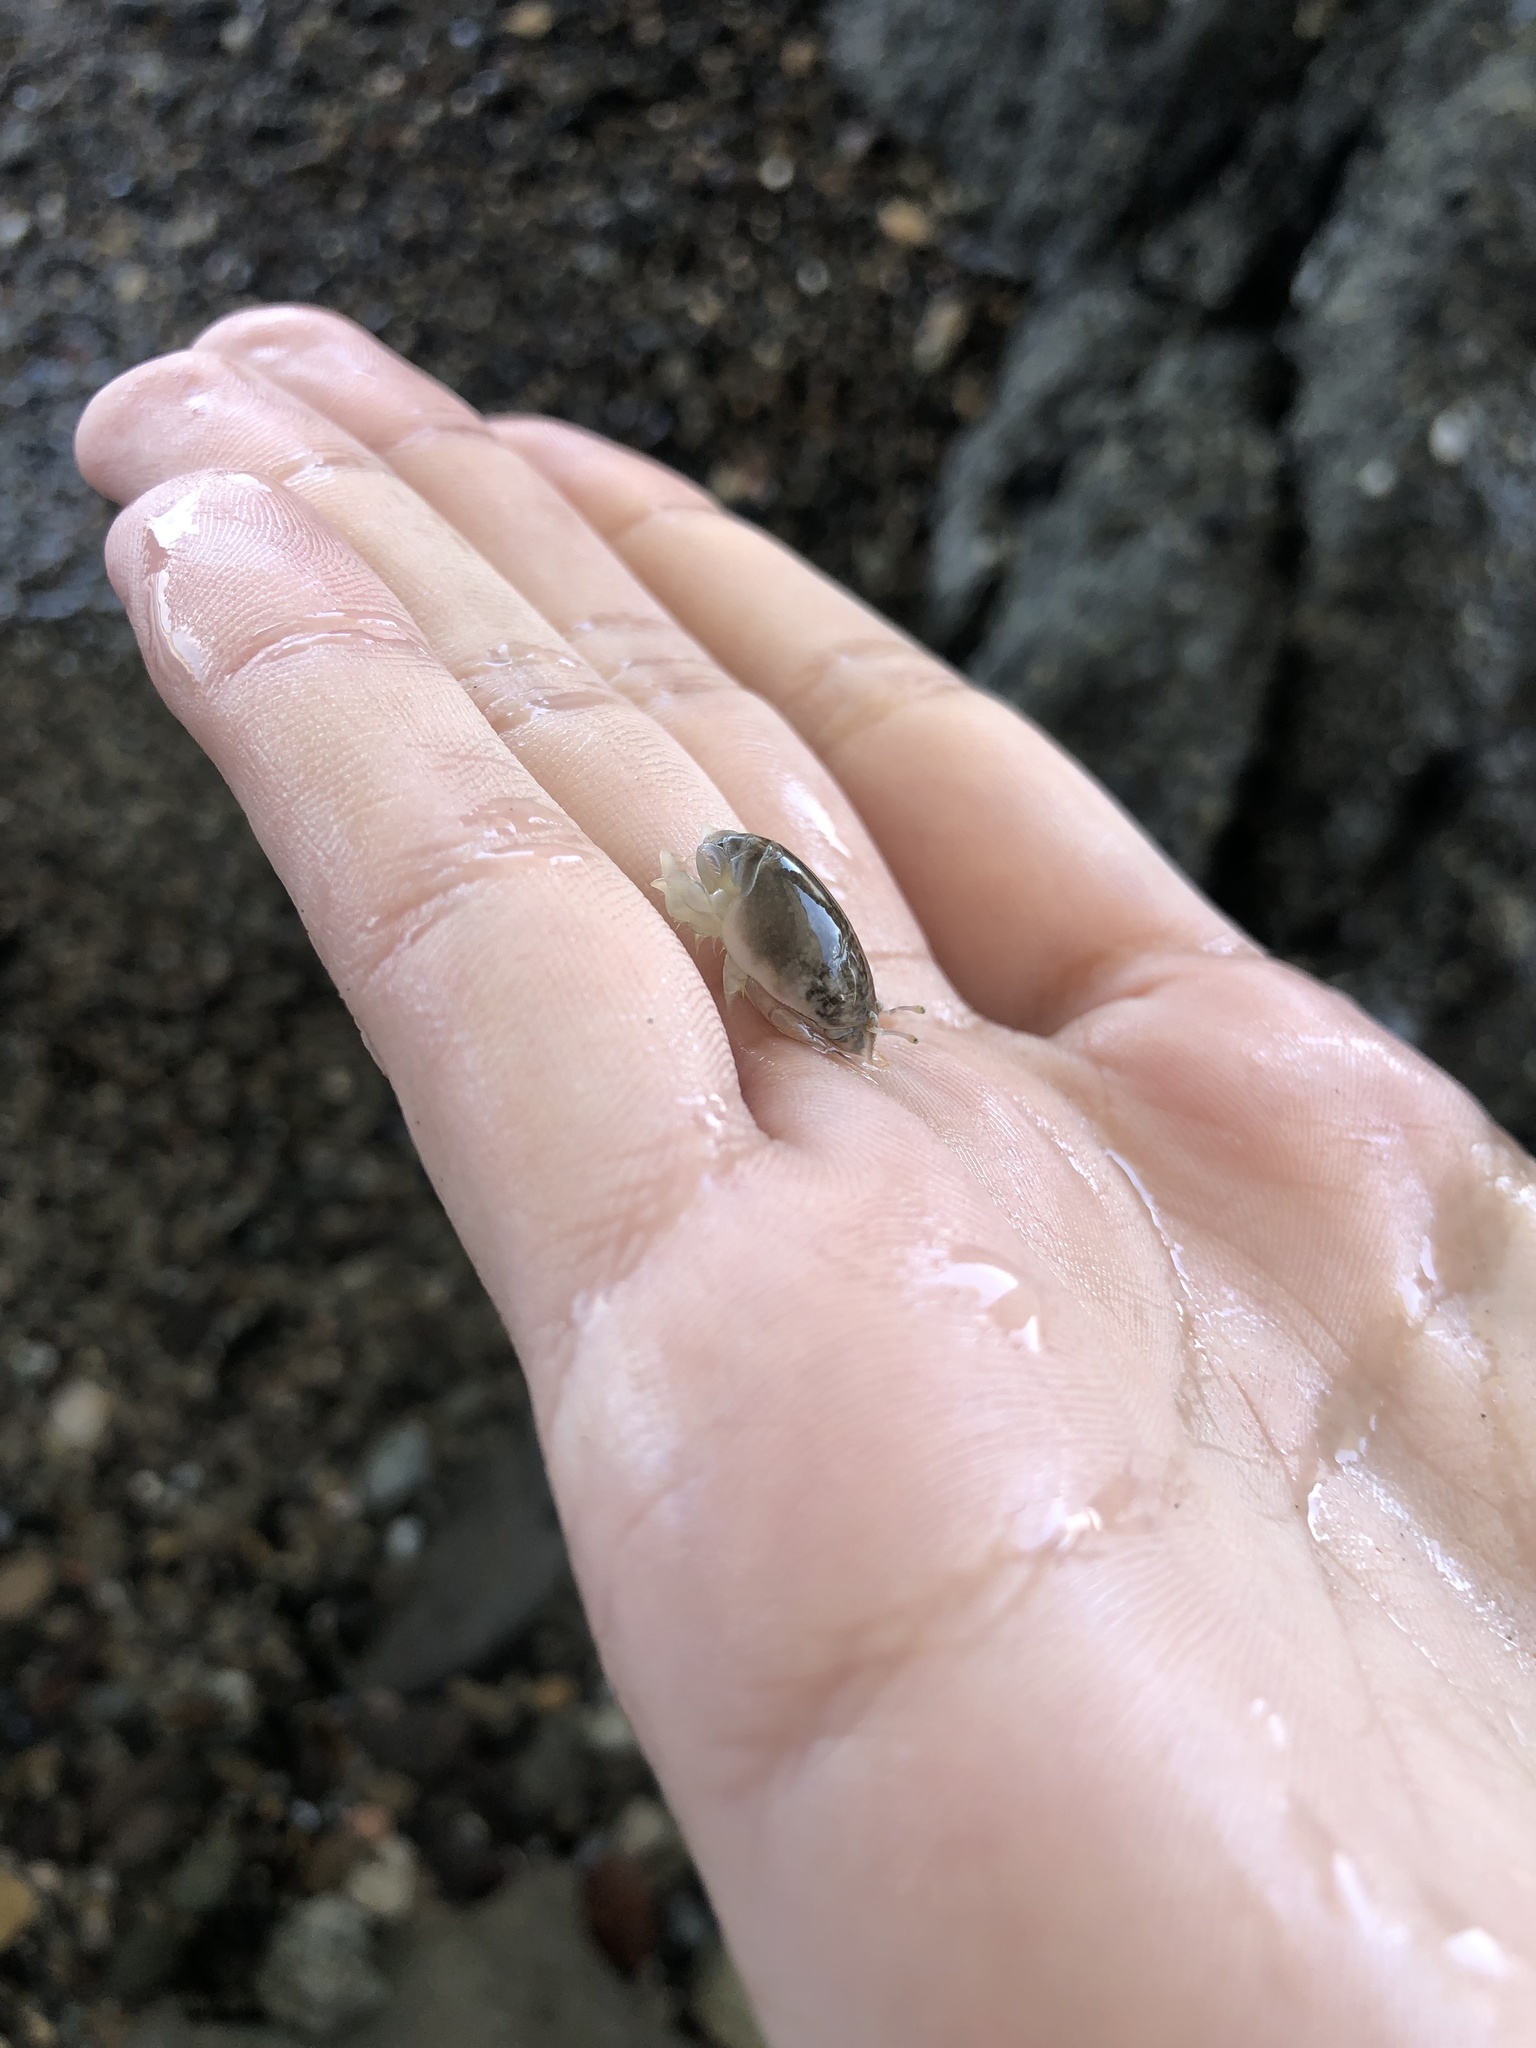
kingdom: Animalia
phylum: Arthropoda
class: Malacostraca
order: Decapoda
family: Hippidae
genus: Emerita
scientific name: Emerita analoga
